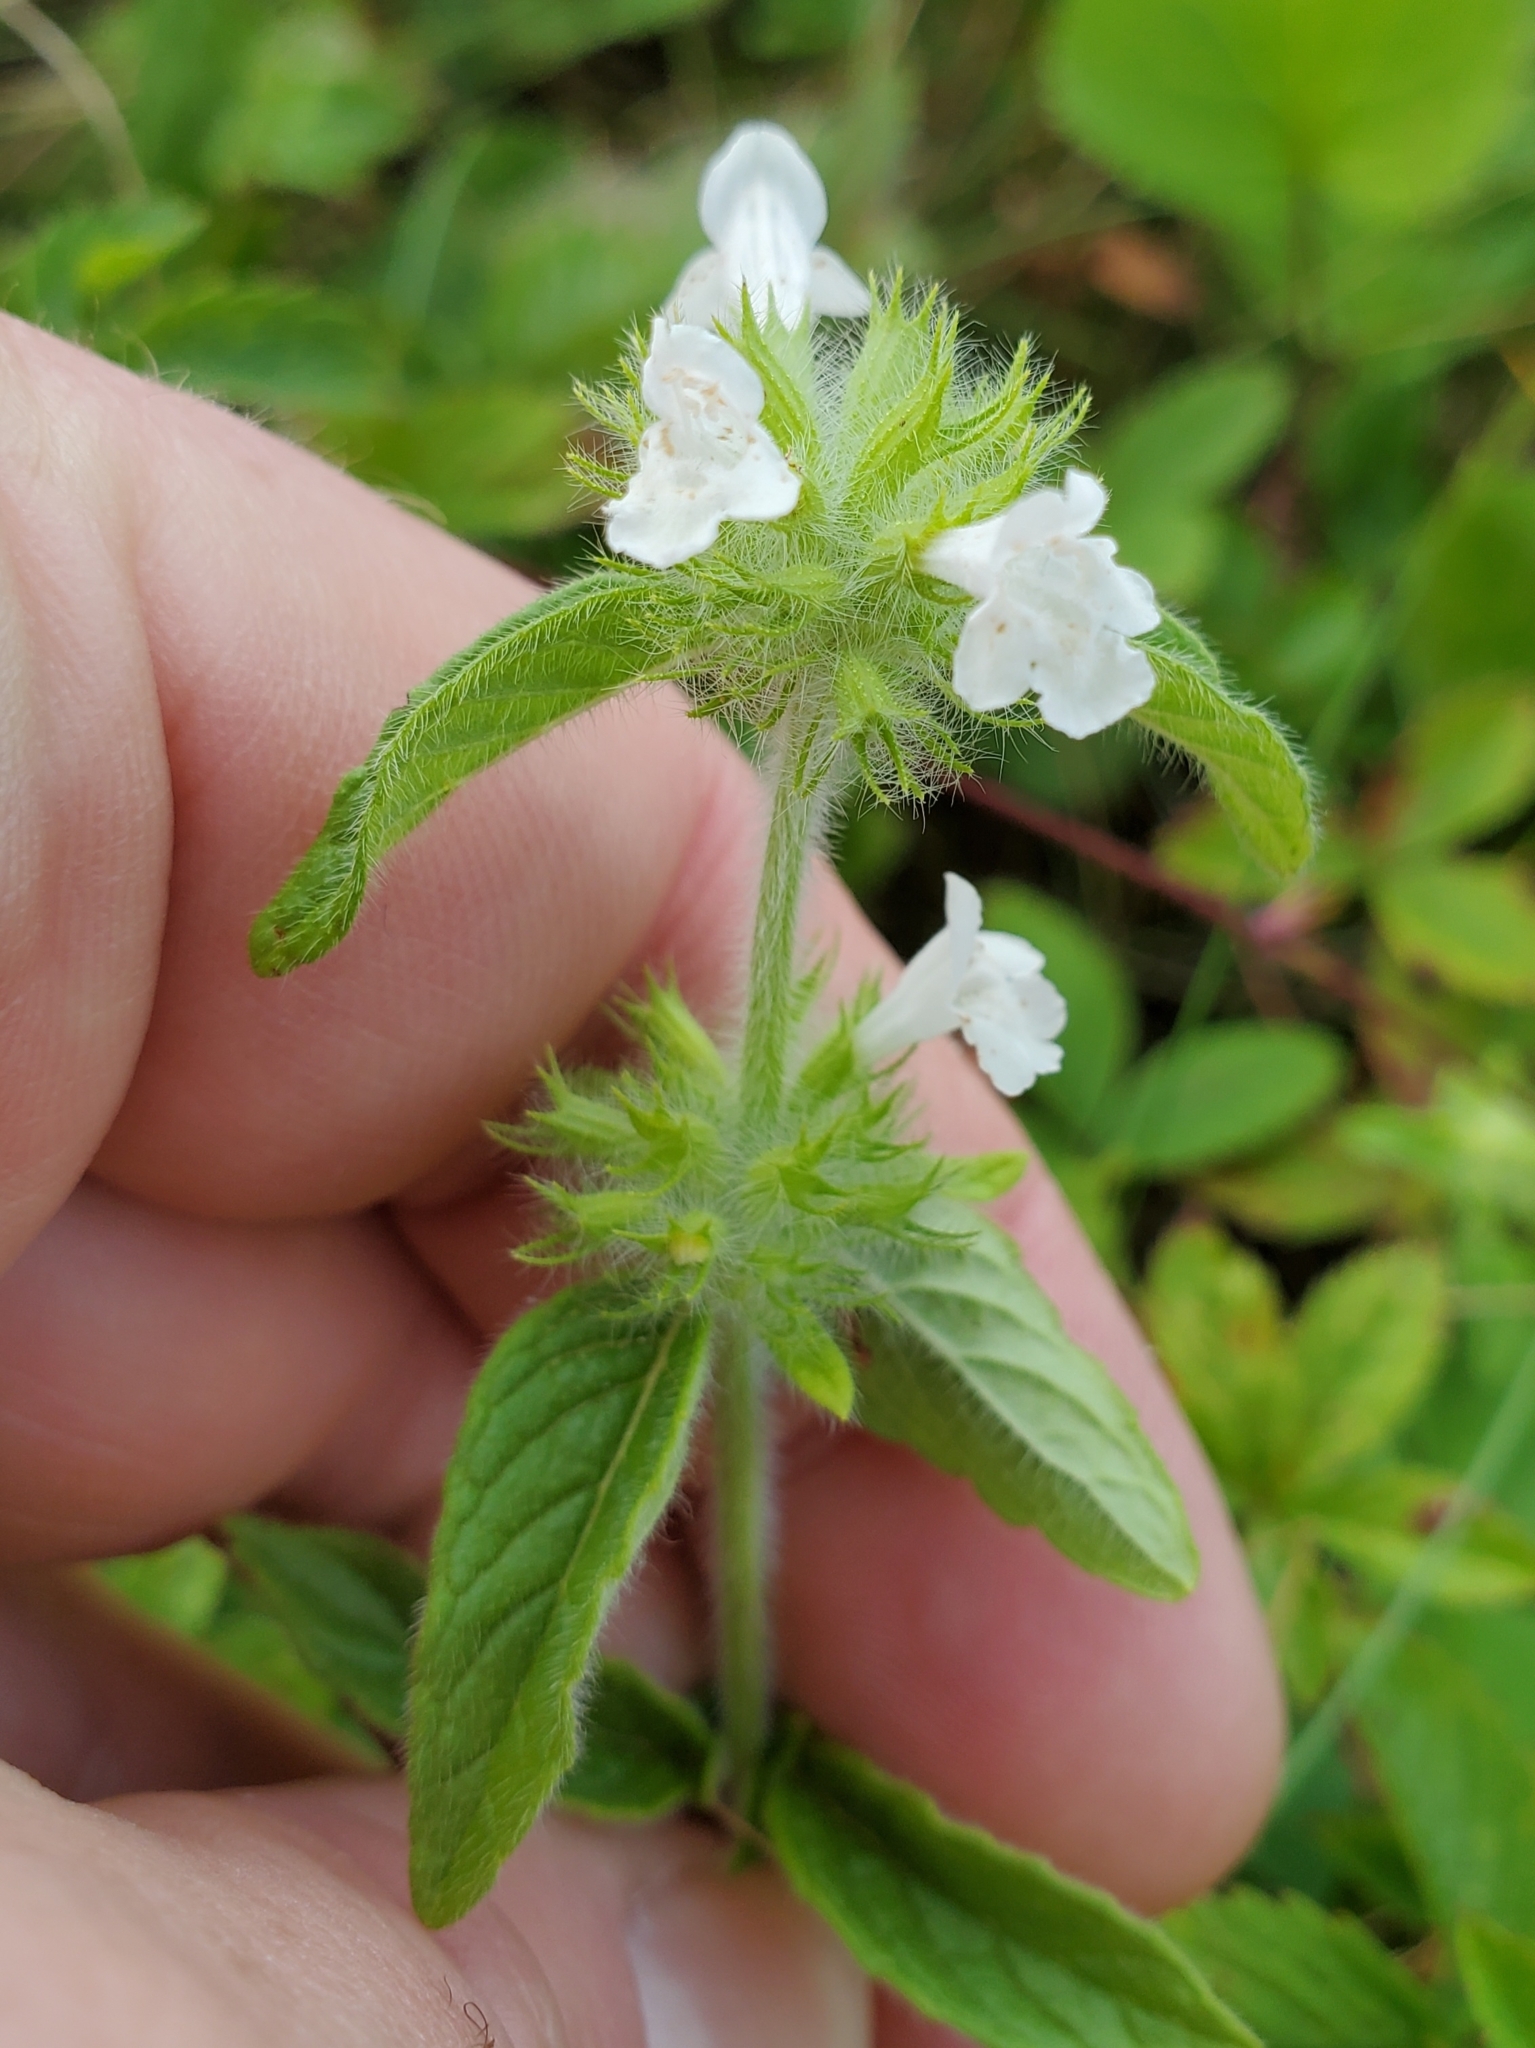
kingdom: Plantae
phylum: Tracheophyta
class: Magnoliopsida
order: Lamiales
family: Lamiaceae
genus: Clinopodium
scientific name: Clinopodium vulgare
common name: Wild basil
